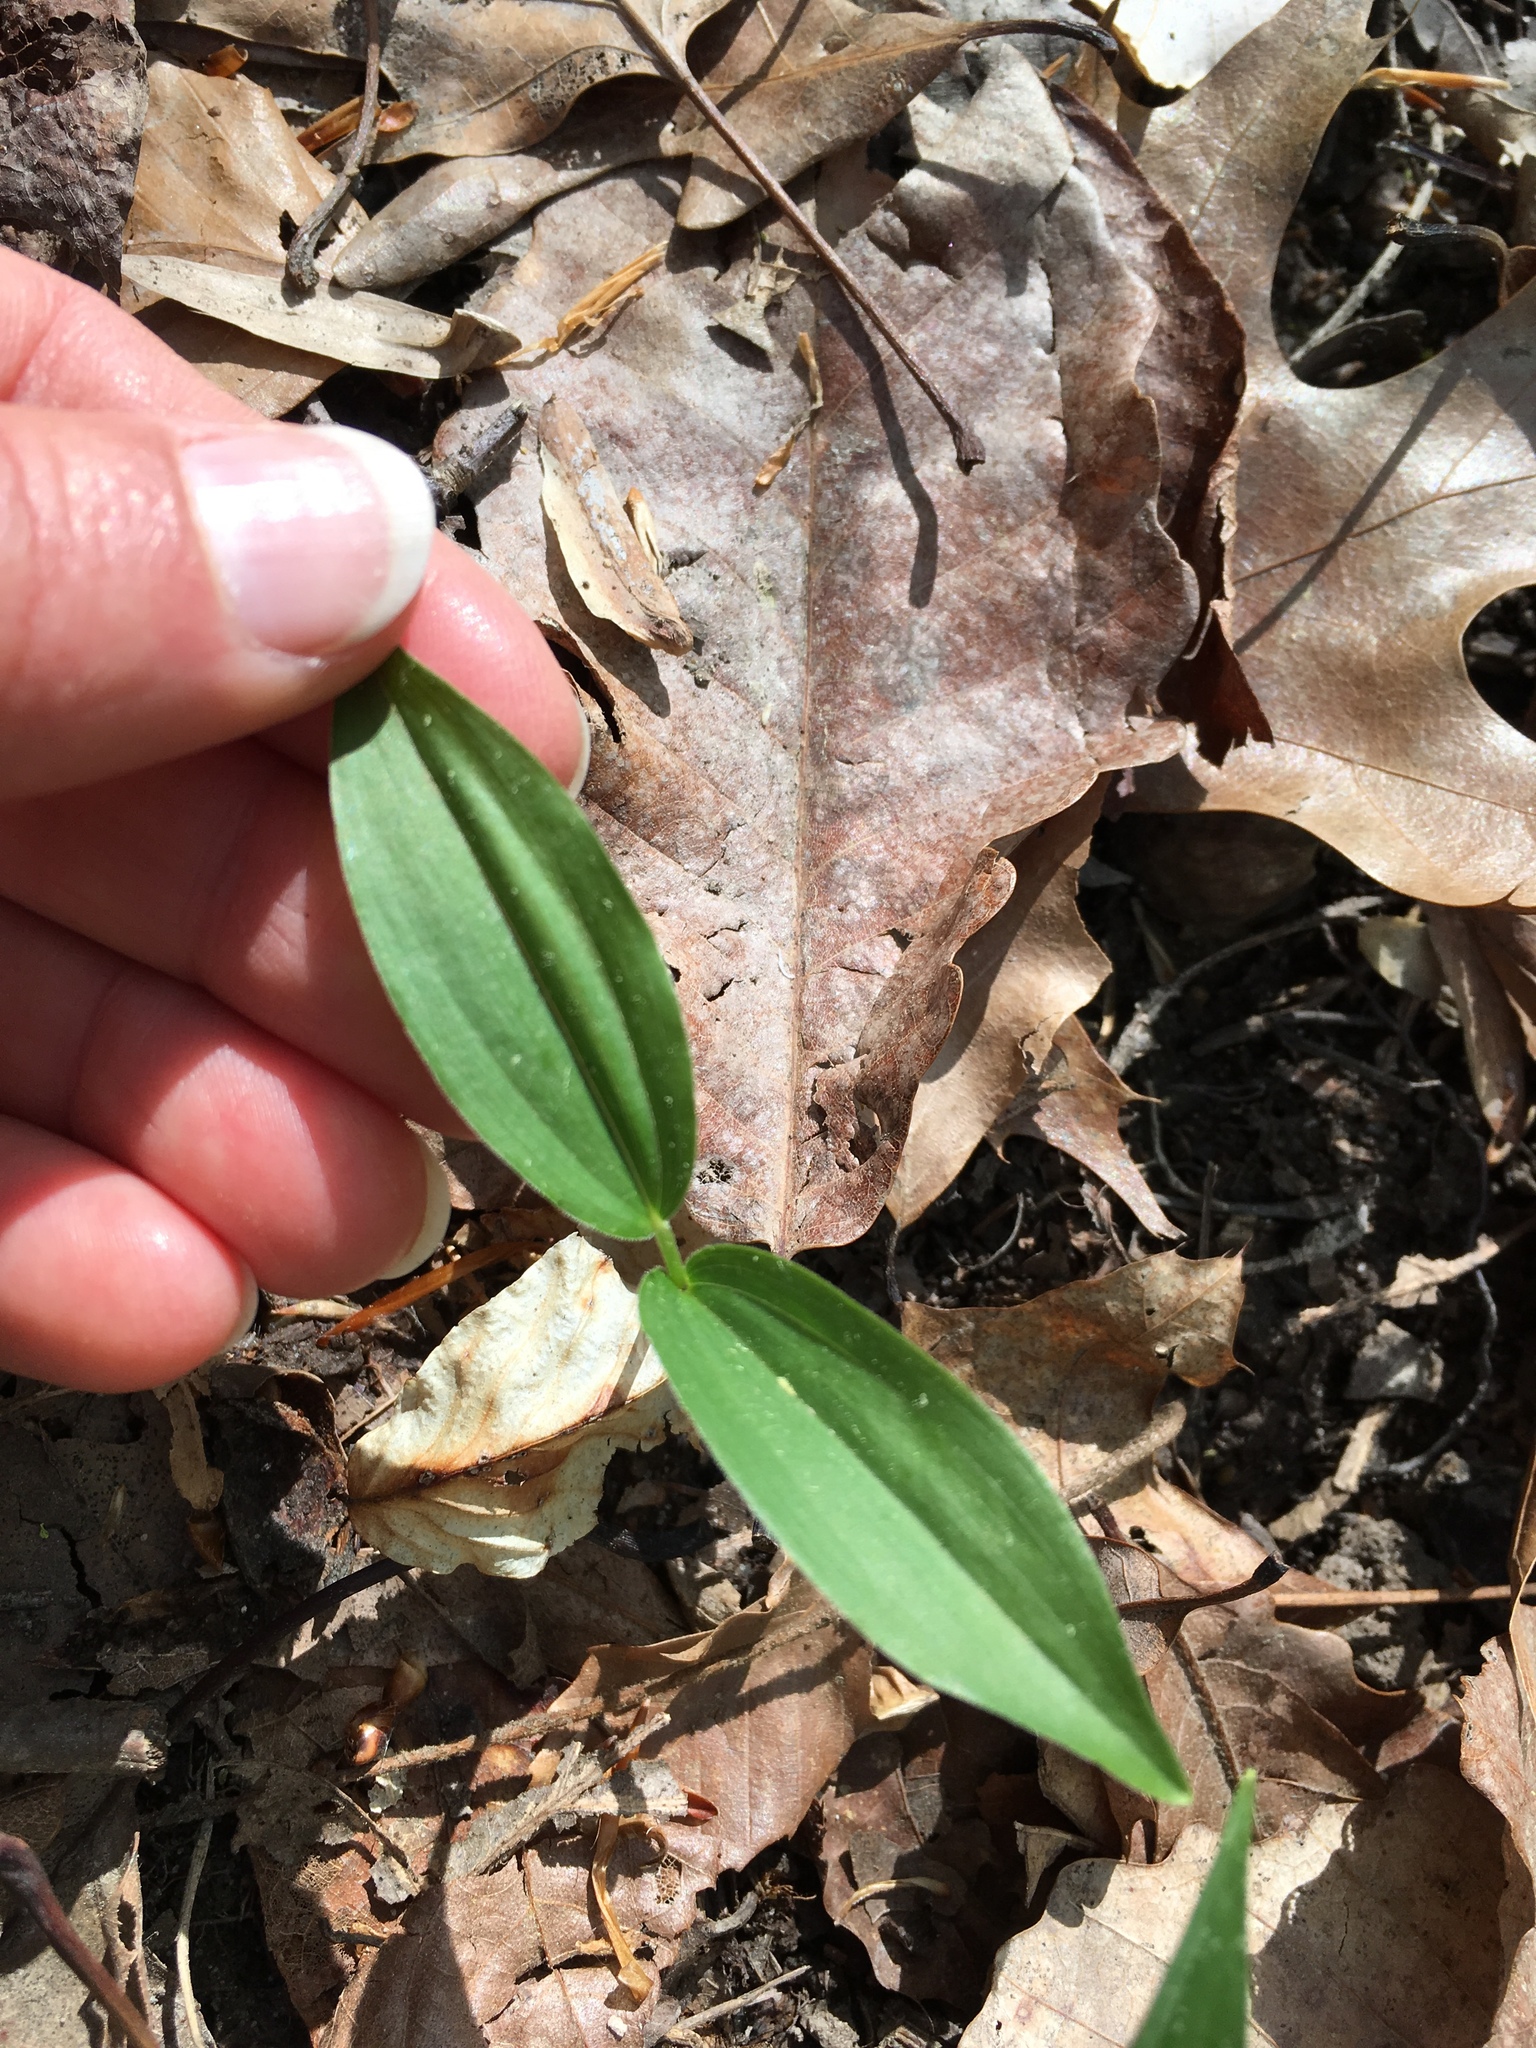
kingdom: Plantae
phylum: Tracheophyta
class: Liliopsida
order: Asparagales
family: Asparagaceae
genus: Maianthemum
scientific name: Maianthemum racemosum
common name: False spikenard
